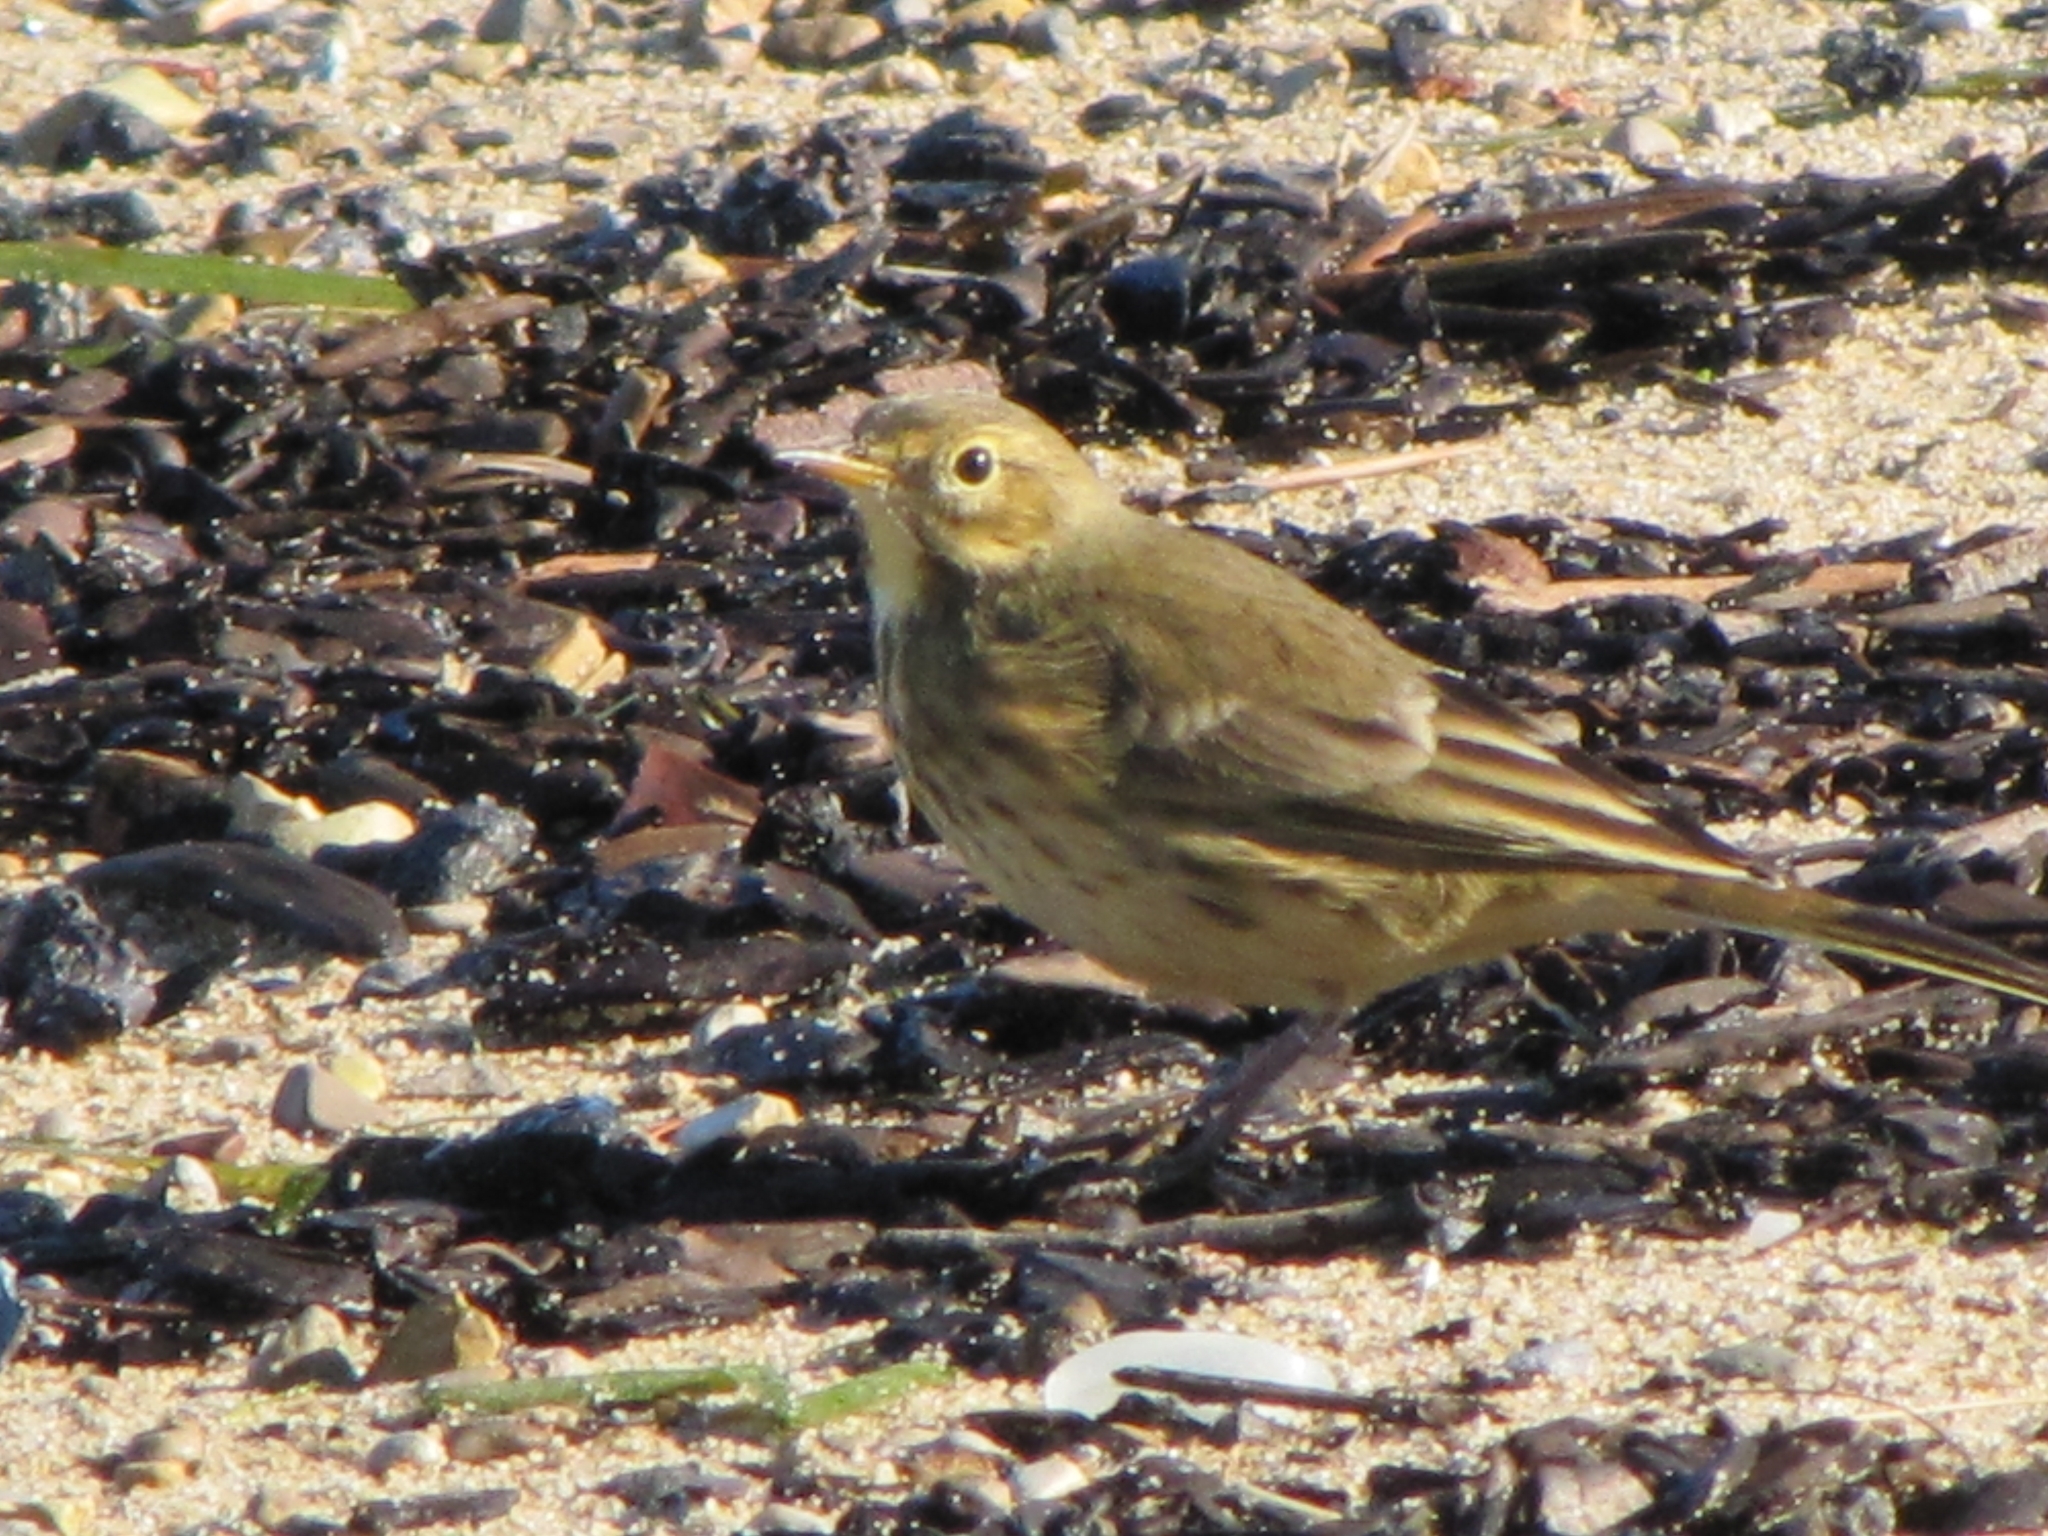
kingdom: Animalia
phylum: Chordata
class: Aves
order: Passeriformes
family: Motacillidae
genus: Anthus
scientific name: Anthus rubescens
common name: Buff-bellied pipit
